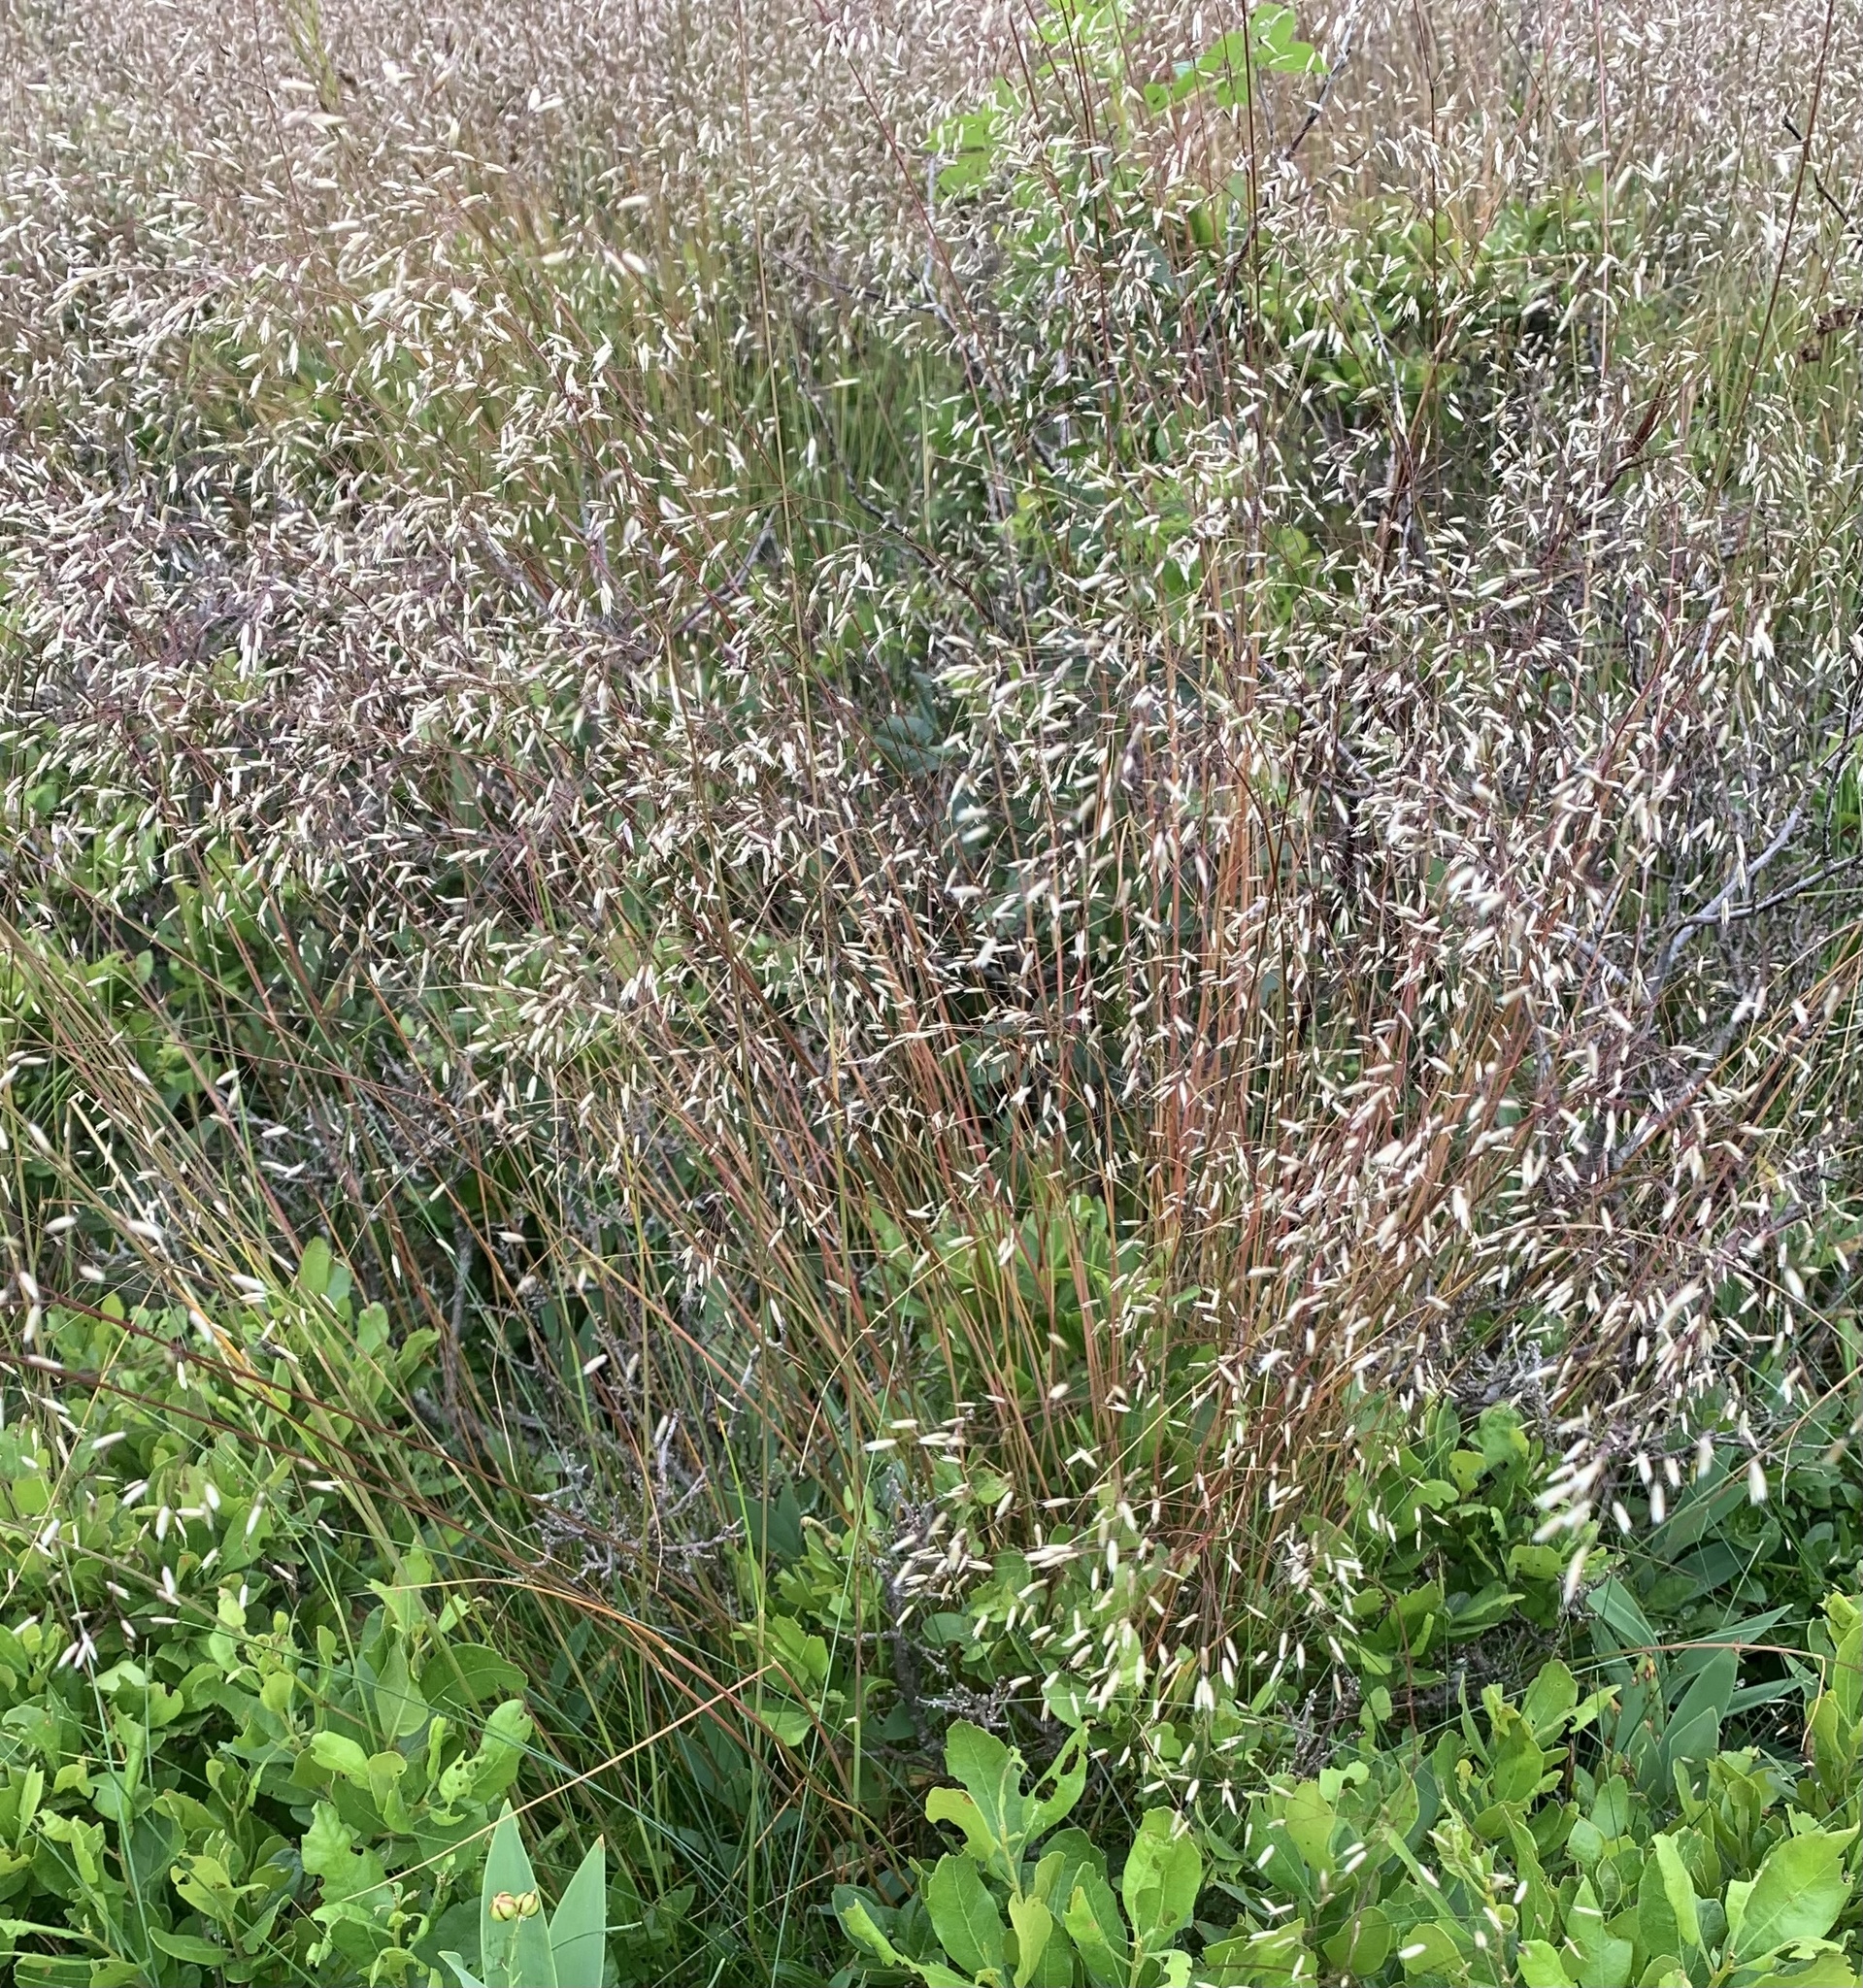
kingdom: Plantae
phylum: Tracheophyta
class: Liliopsida
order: Poales
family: Poaceae
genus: Avenella
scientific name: Avenella flexuosa
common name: Wavy hairgrass
